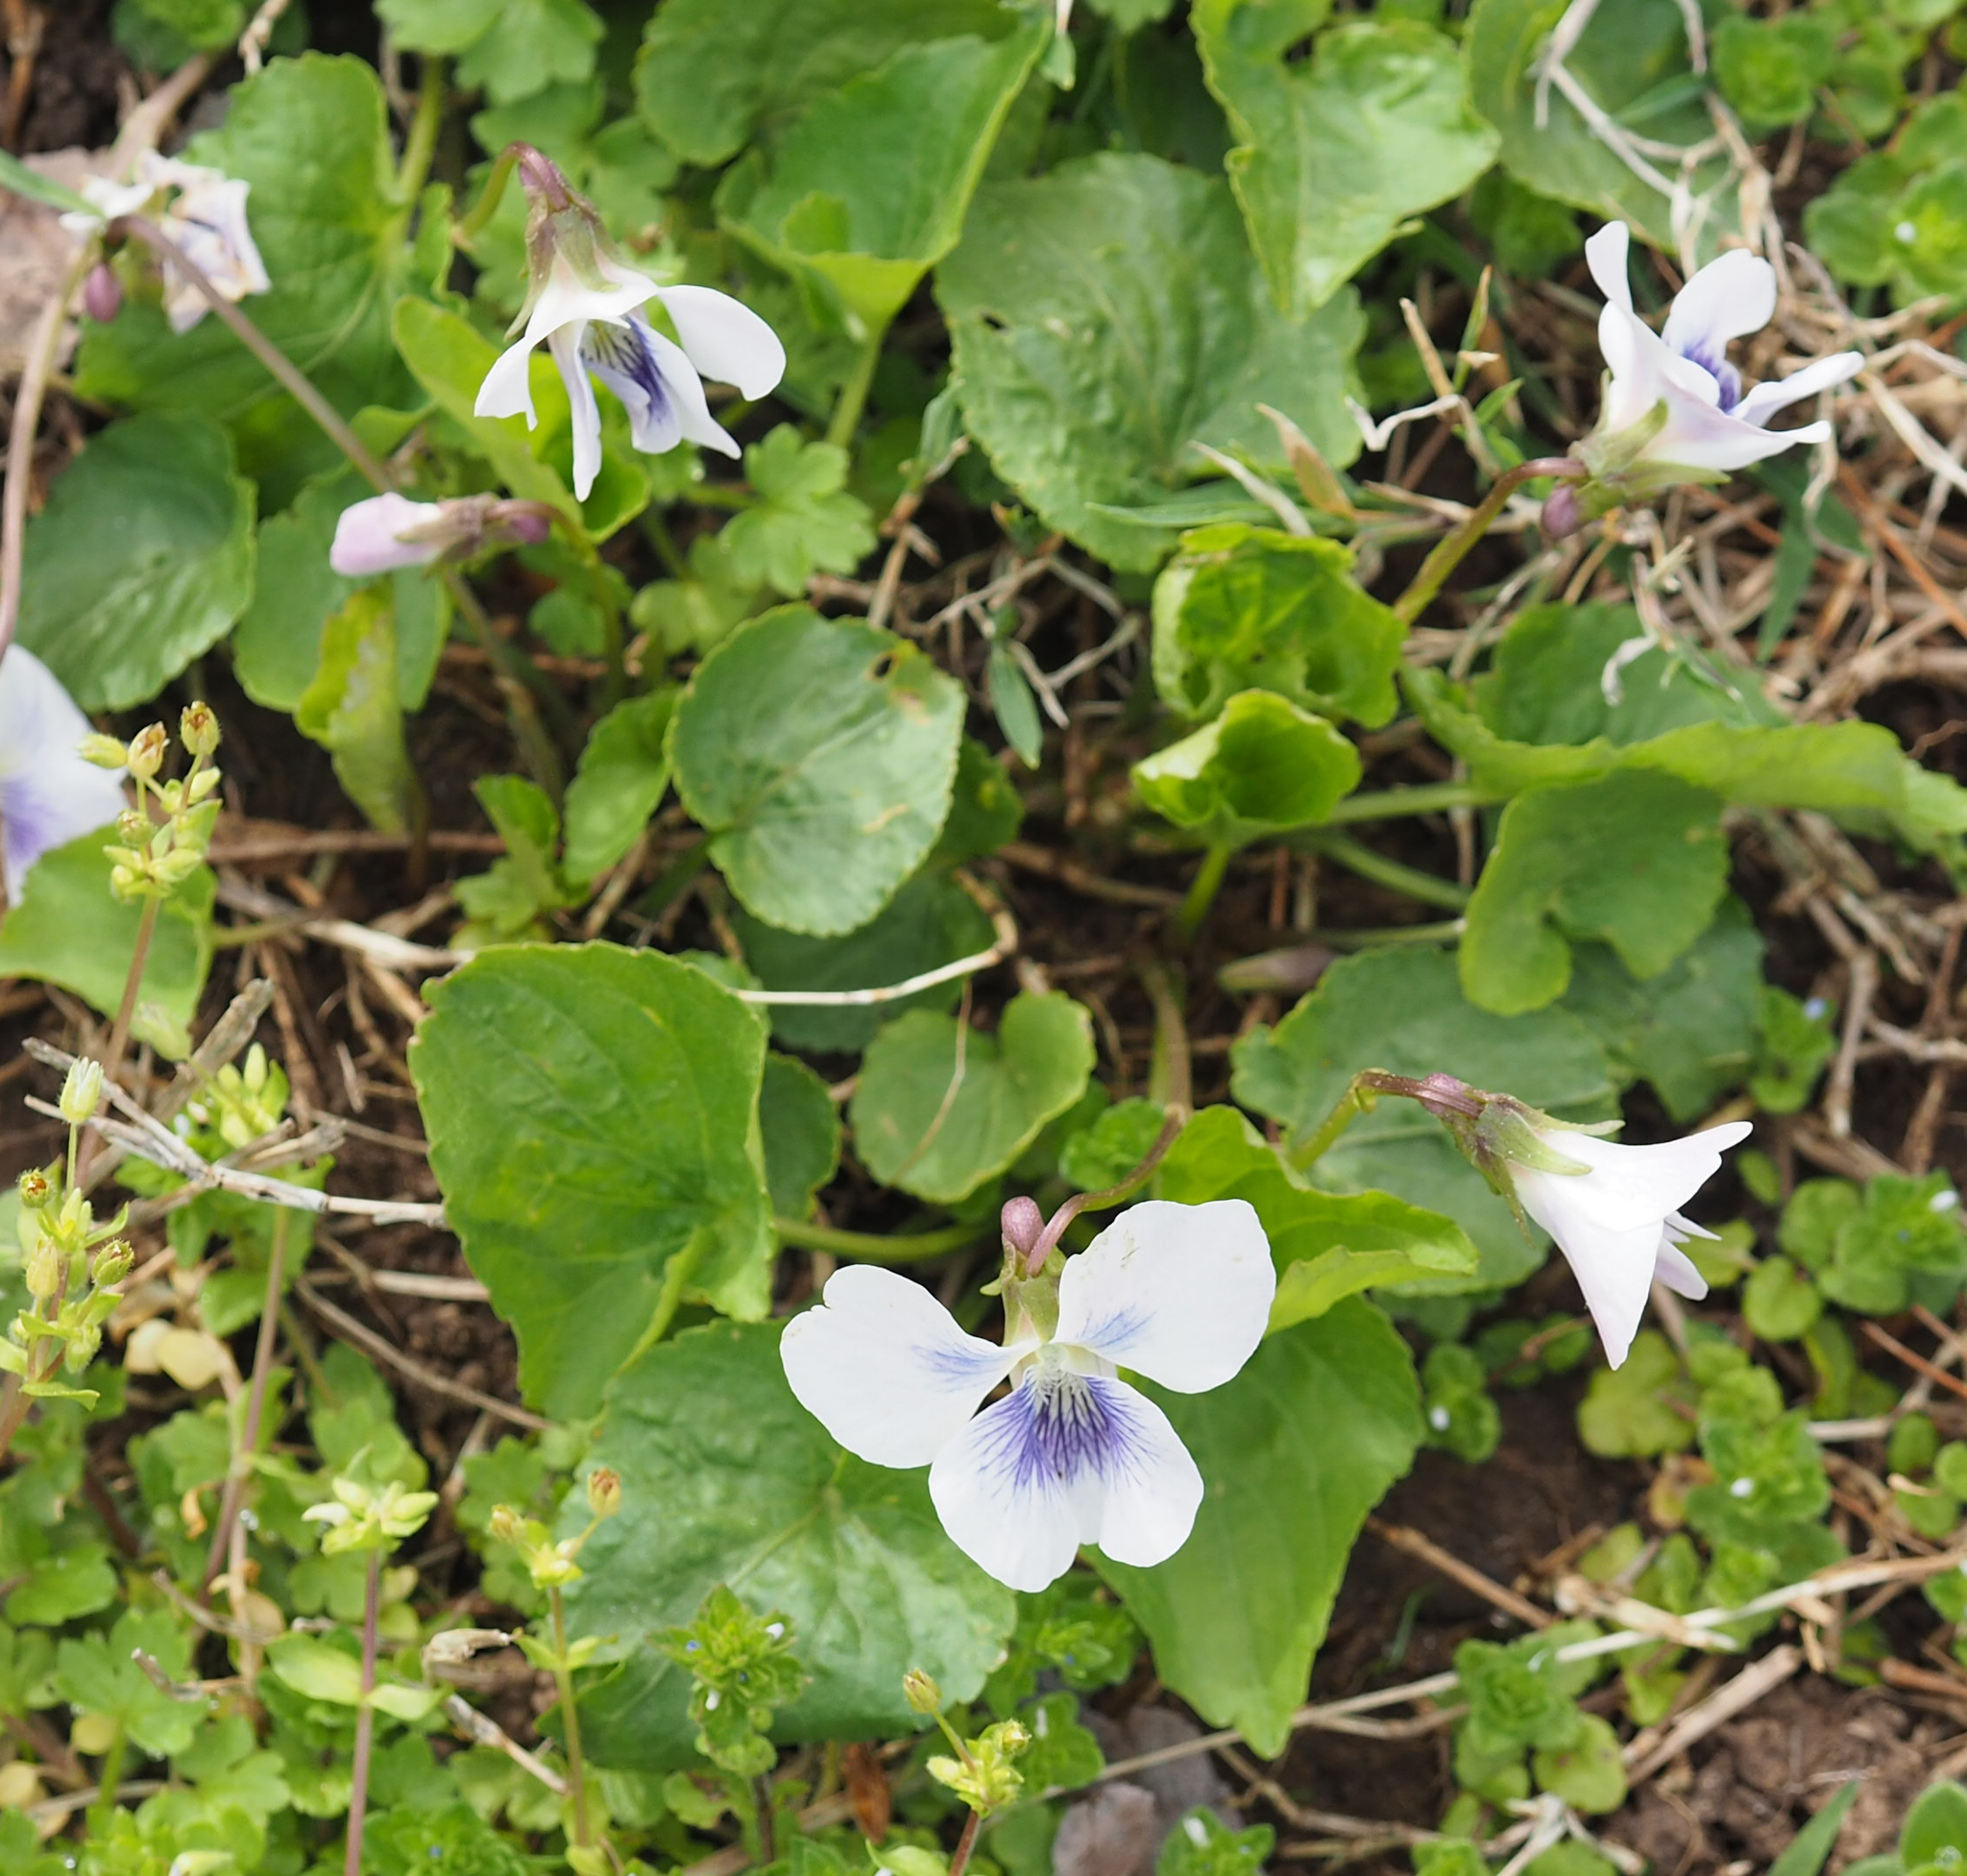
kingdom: Plantae
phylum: Tracheophyta
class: Magnoliopsida
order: Malpighiales
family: Violaceae
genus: Viola
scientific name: Viola sororia
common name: Dooryard violet
